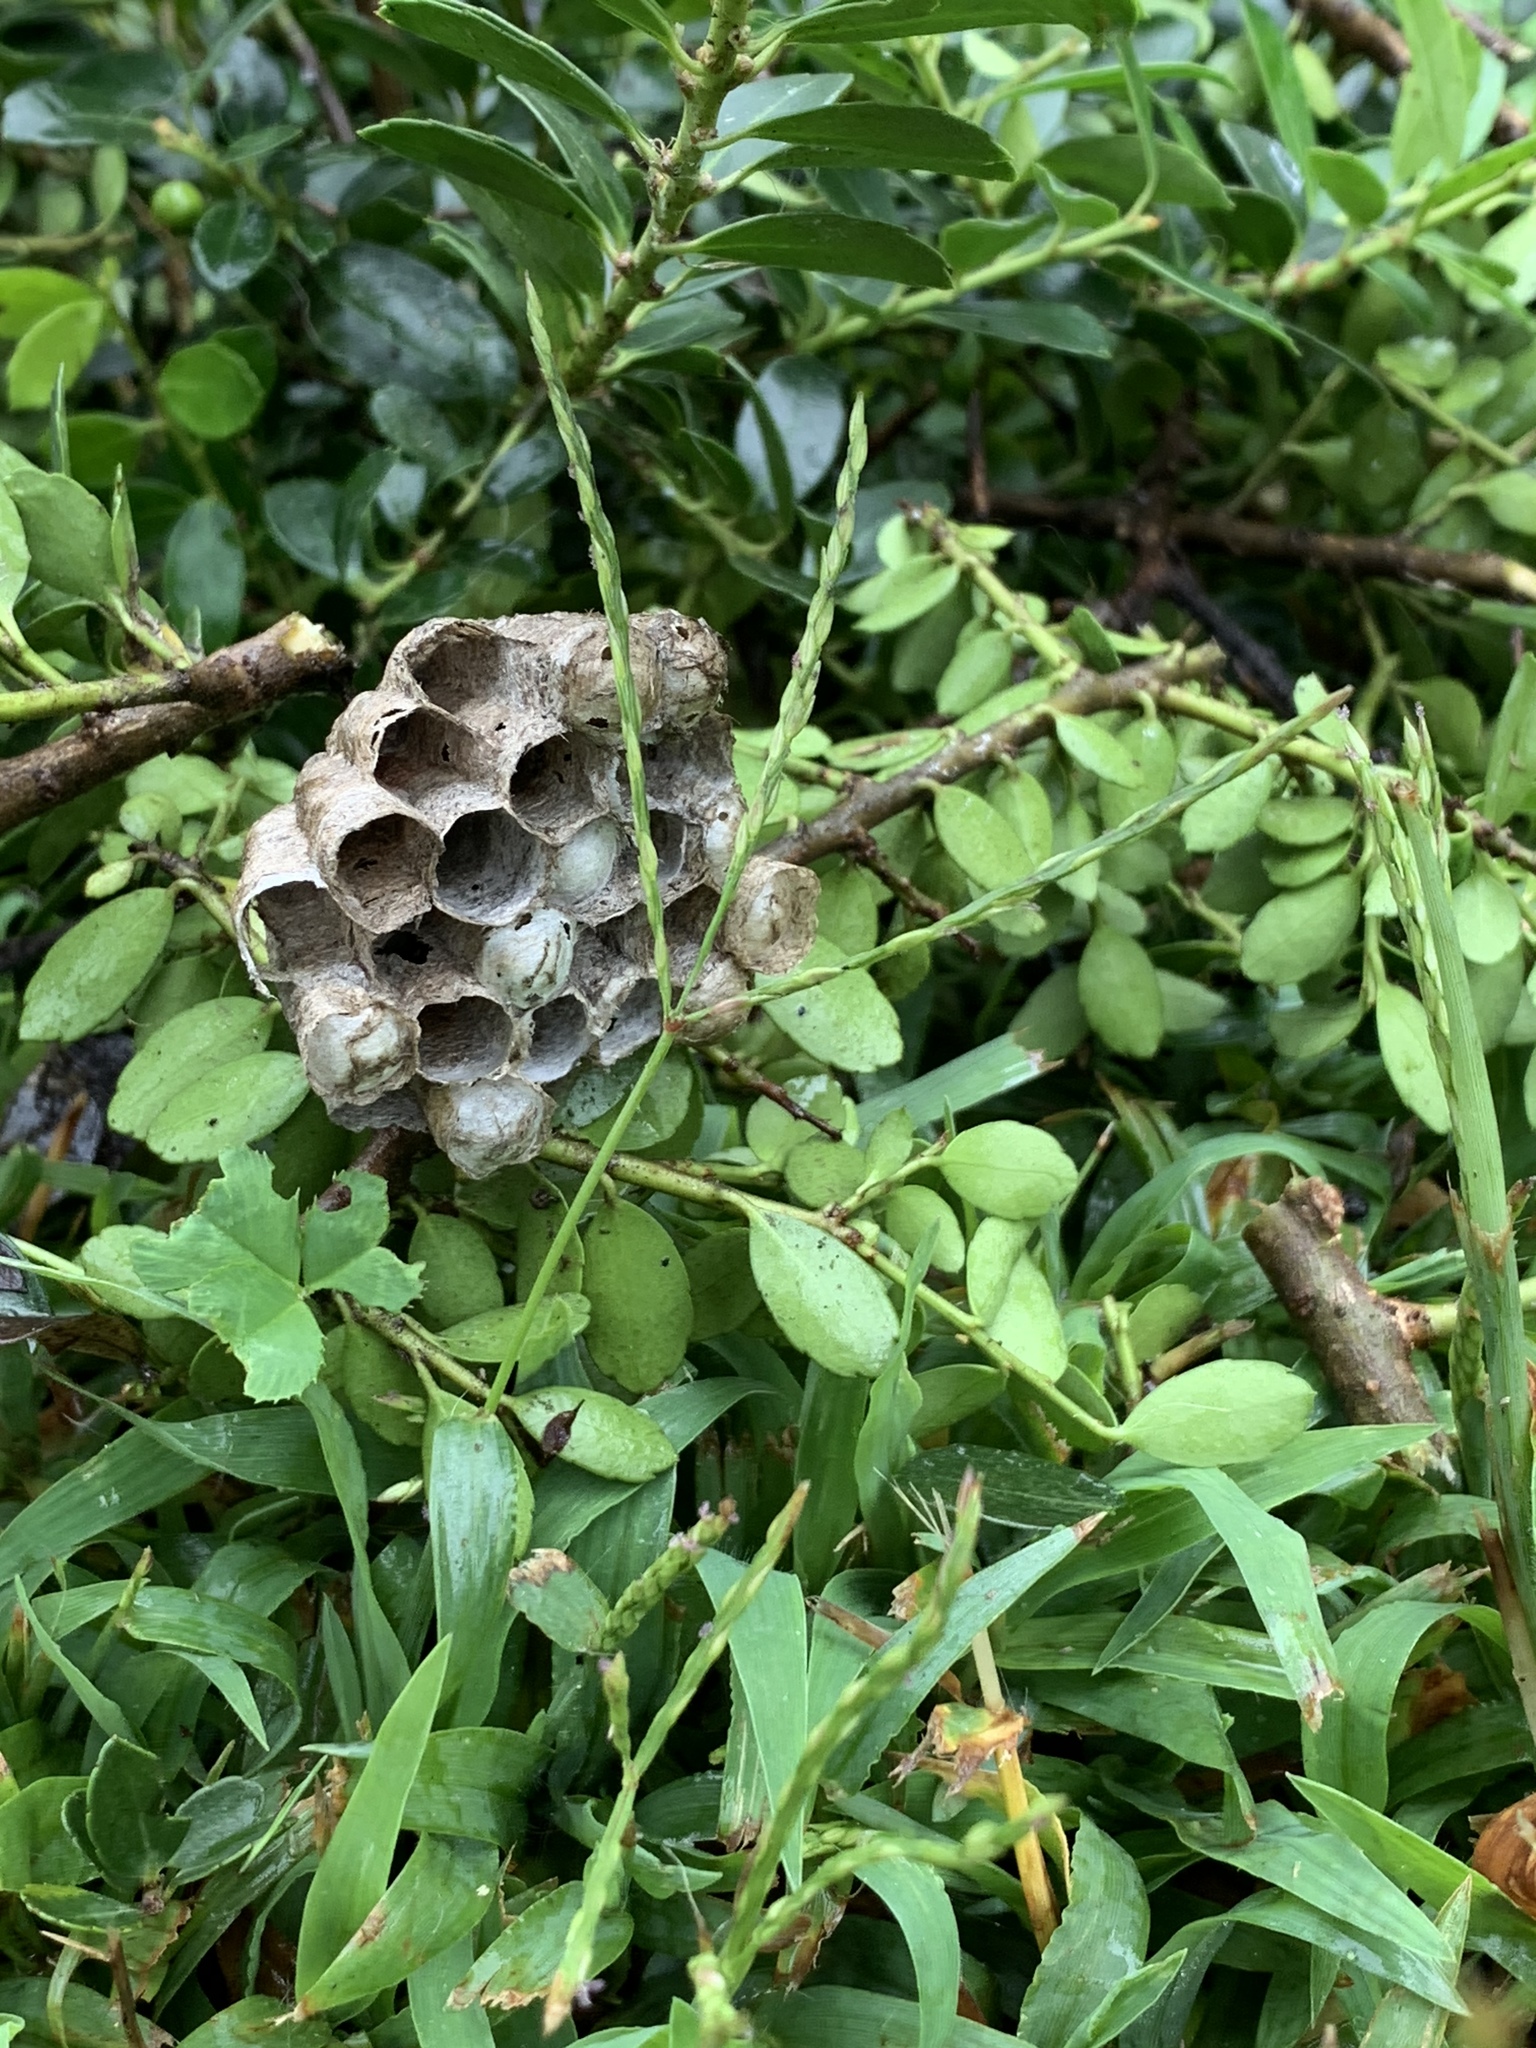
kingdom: Animalia
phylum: Arthropoda
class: Insecta
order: Hymenoptera
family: Eumenidae
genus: Polistes
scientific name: Polistes
